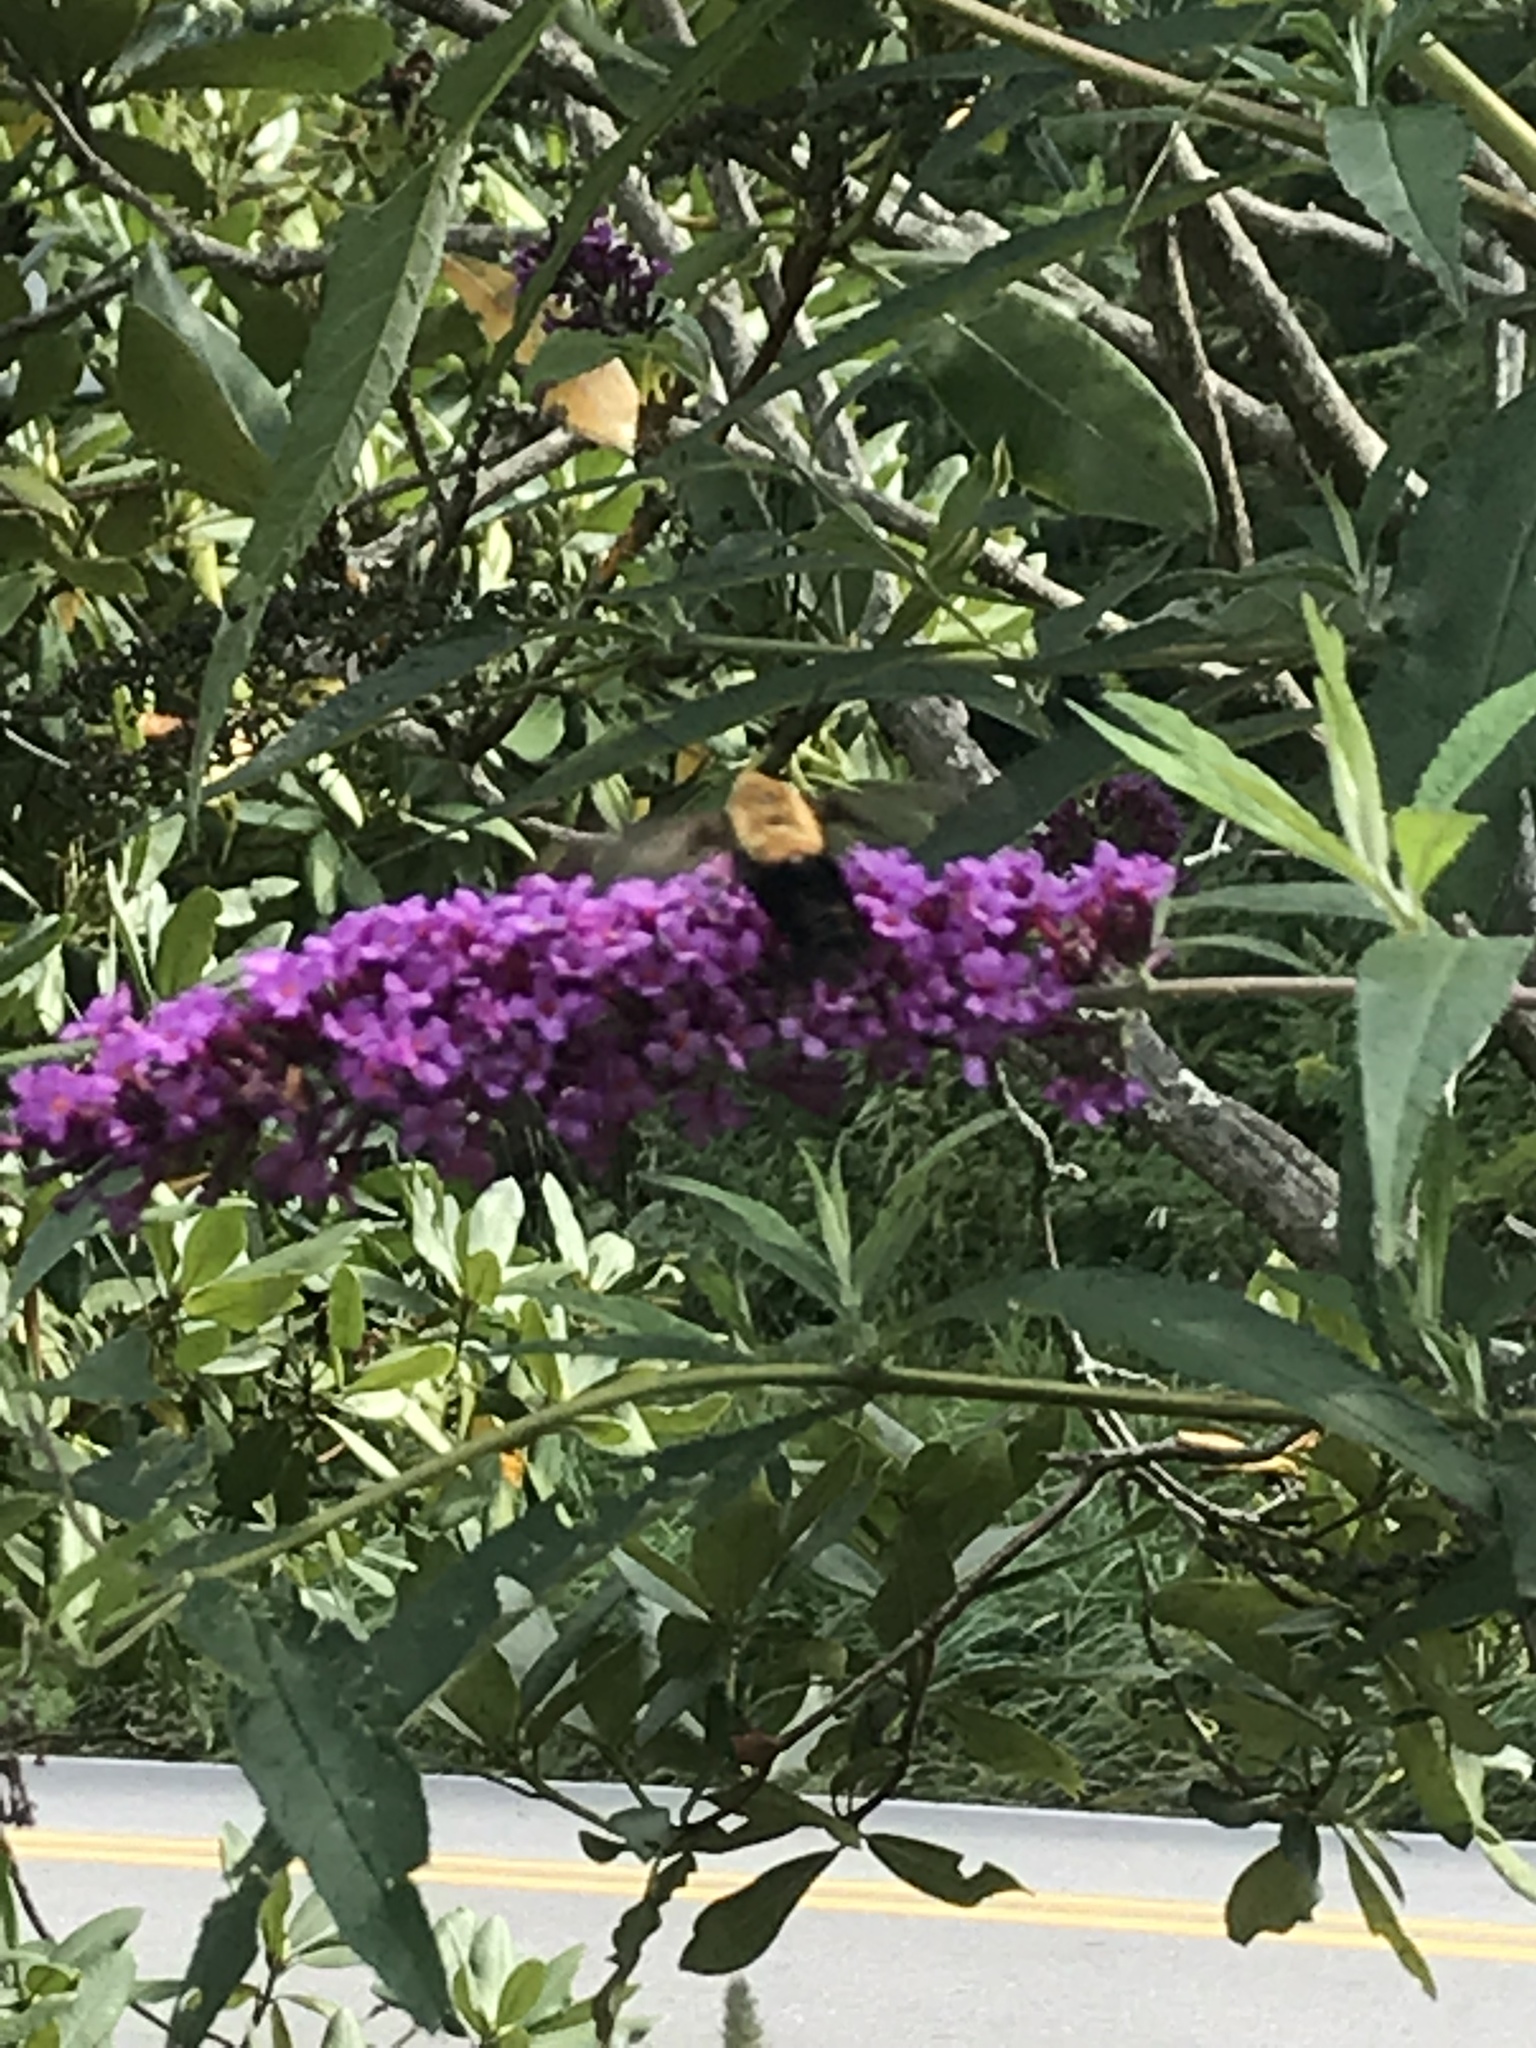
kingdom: Animalia
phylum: Arthropoda
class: Insecta
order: Lepidoptera
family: Sphingidae
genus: Hemaris
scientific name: Hemaris thysbe
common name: Common clear-wing
